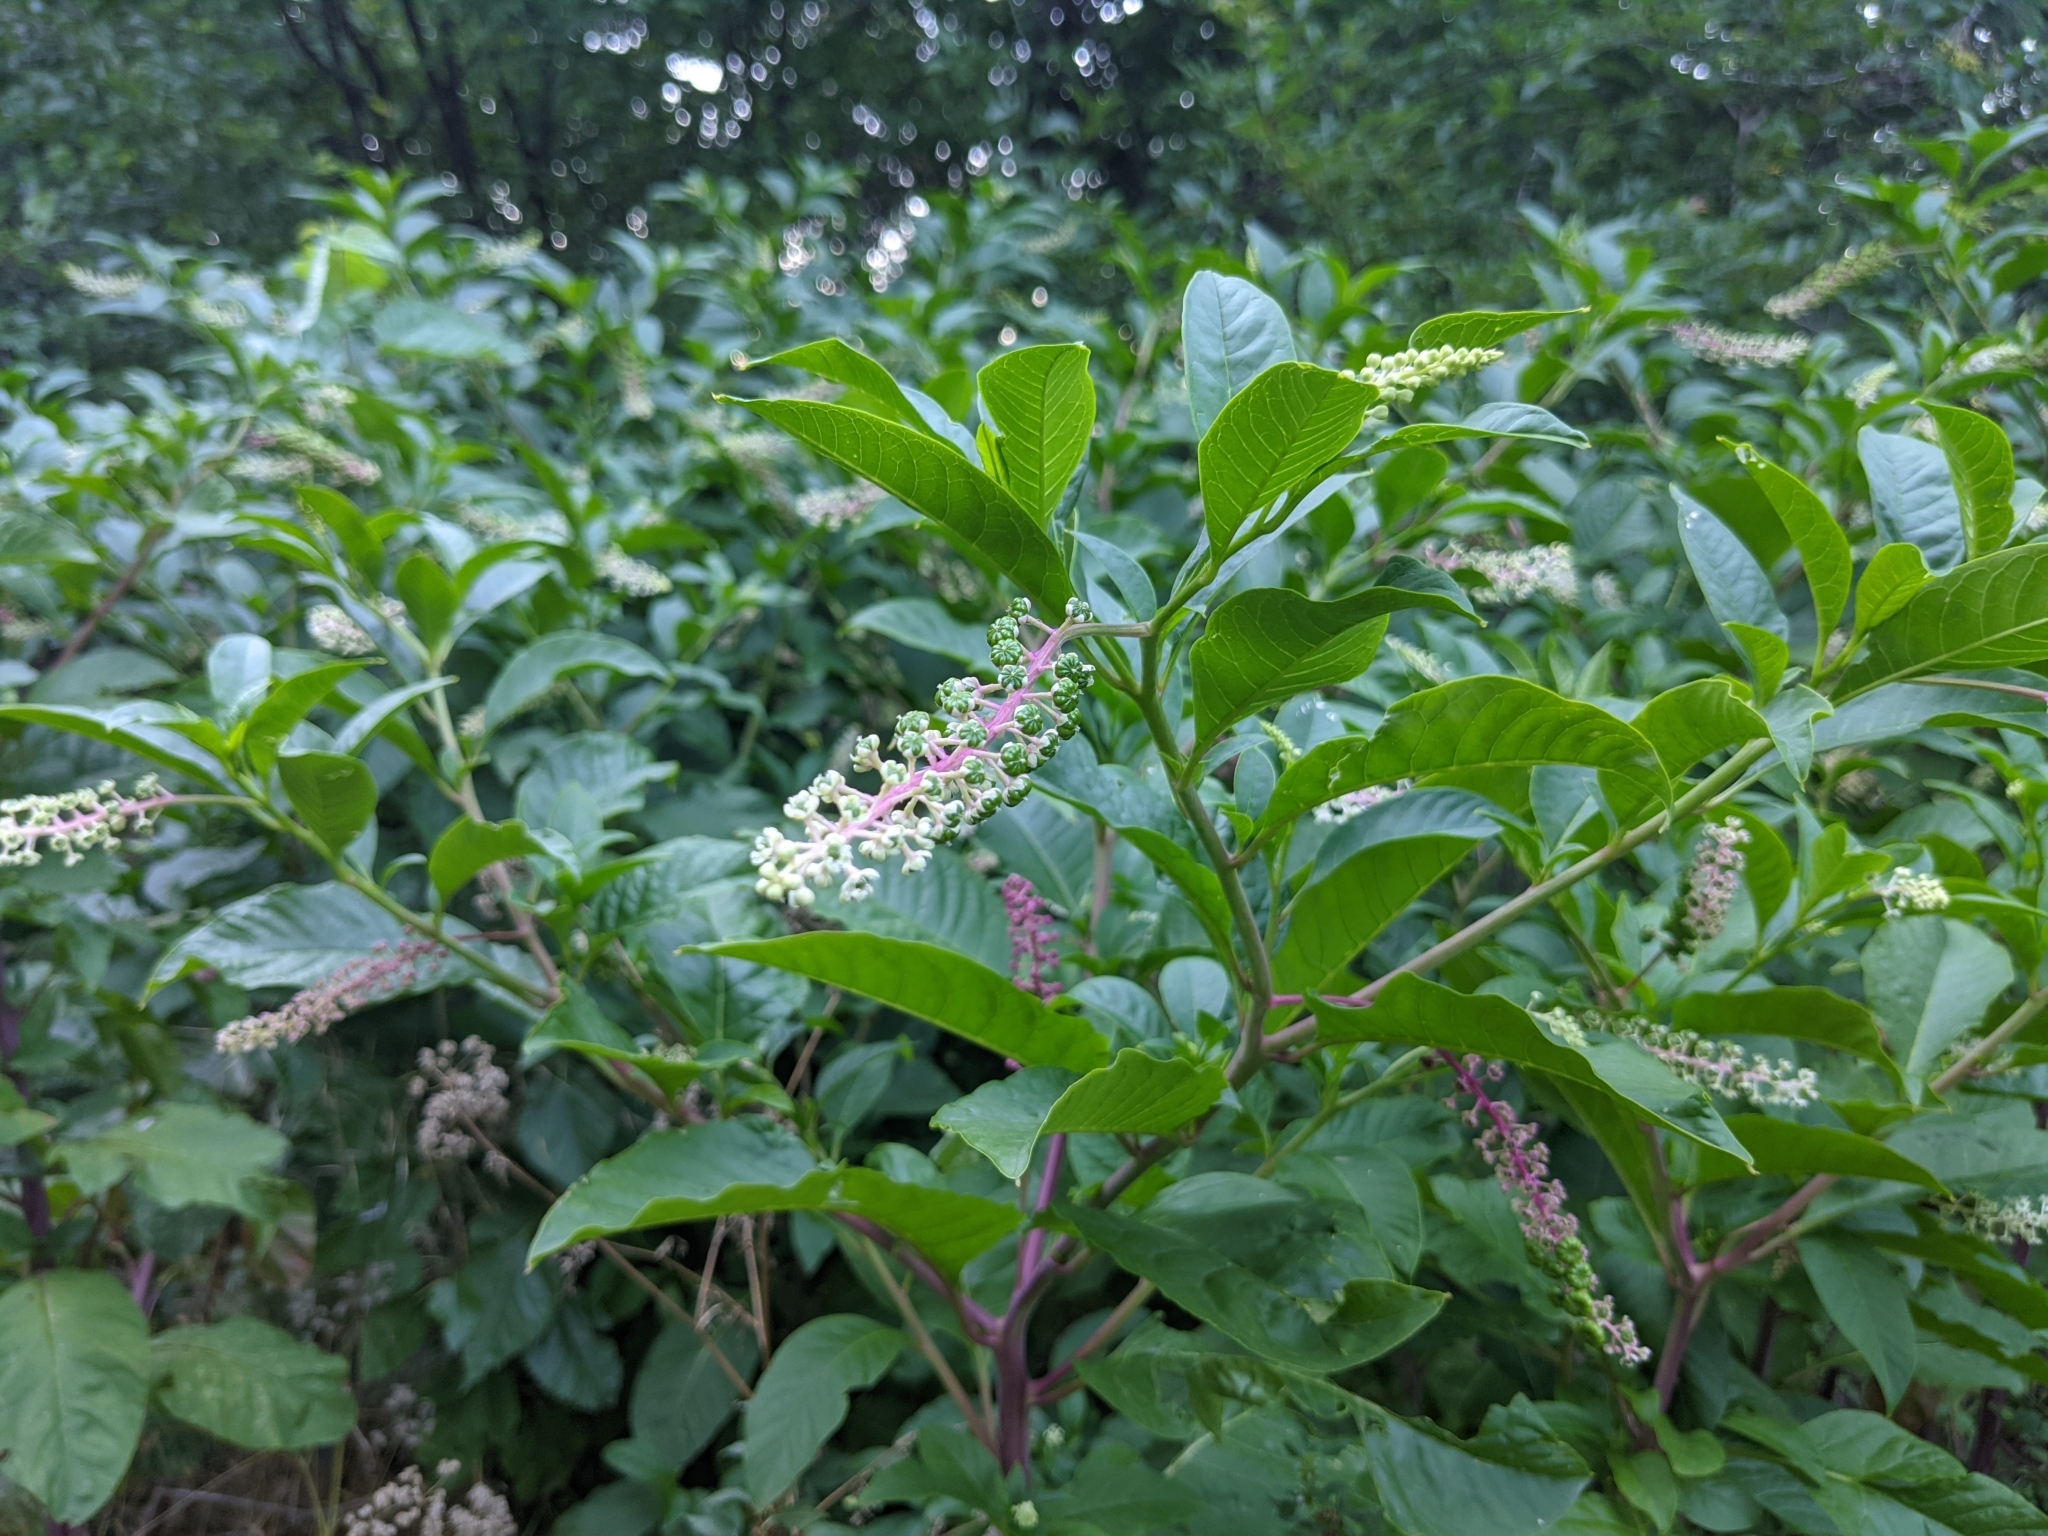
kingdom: Plantae
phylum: Tracheophyta
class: Magnoliopsida
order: Caryophyllales
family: Phytolaccaceae
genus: Phytolacca
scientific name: Phytolacca americana
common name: American pokeweed
